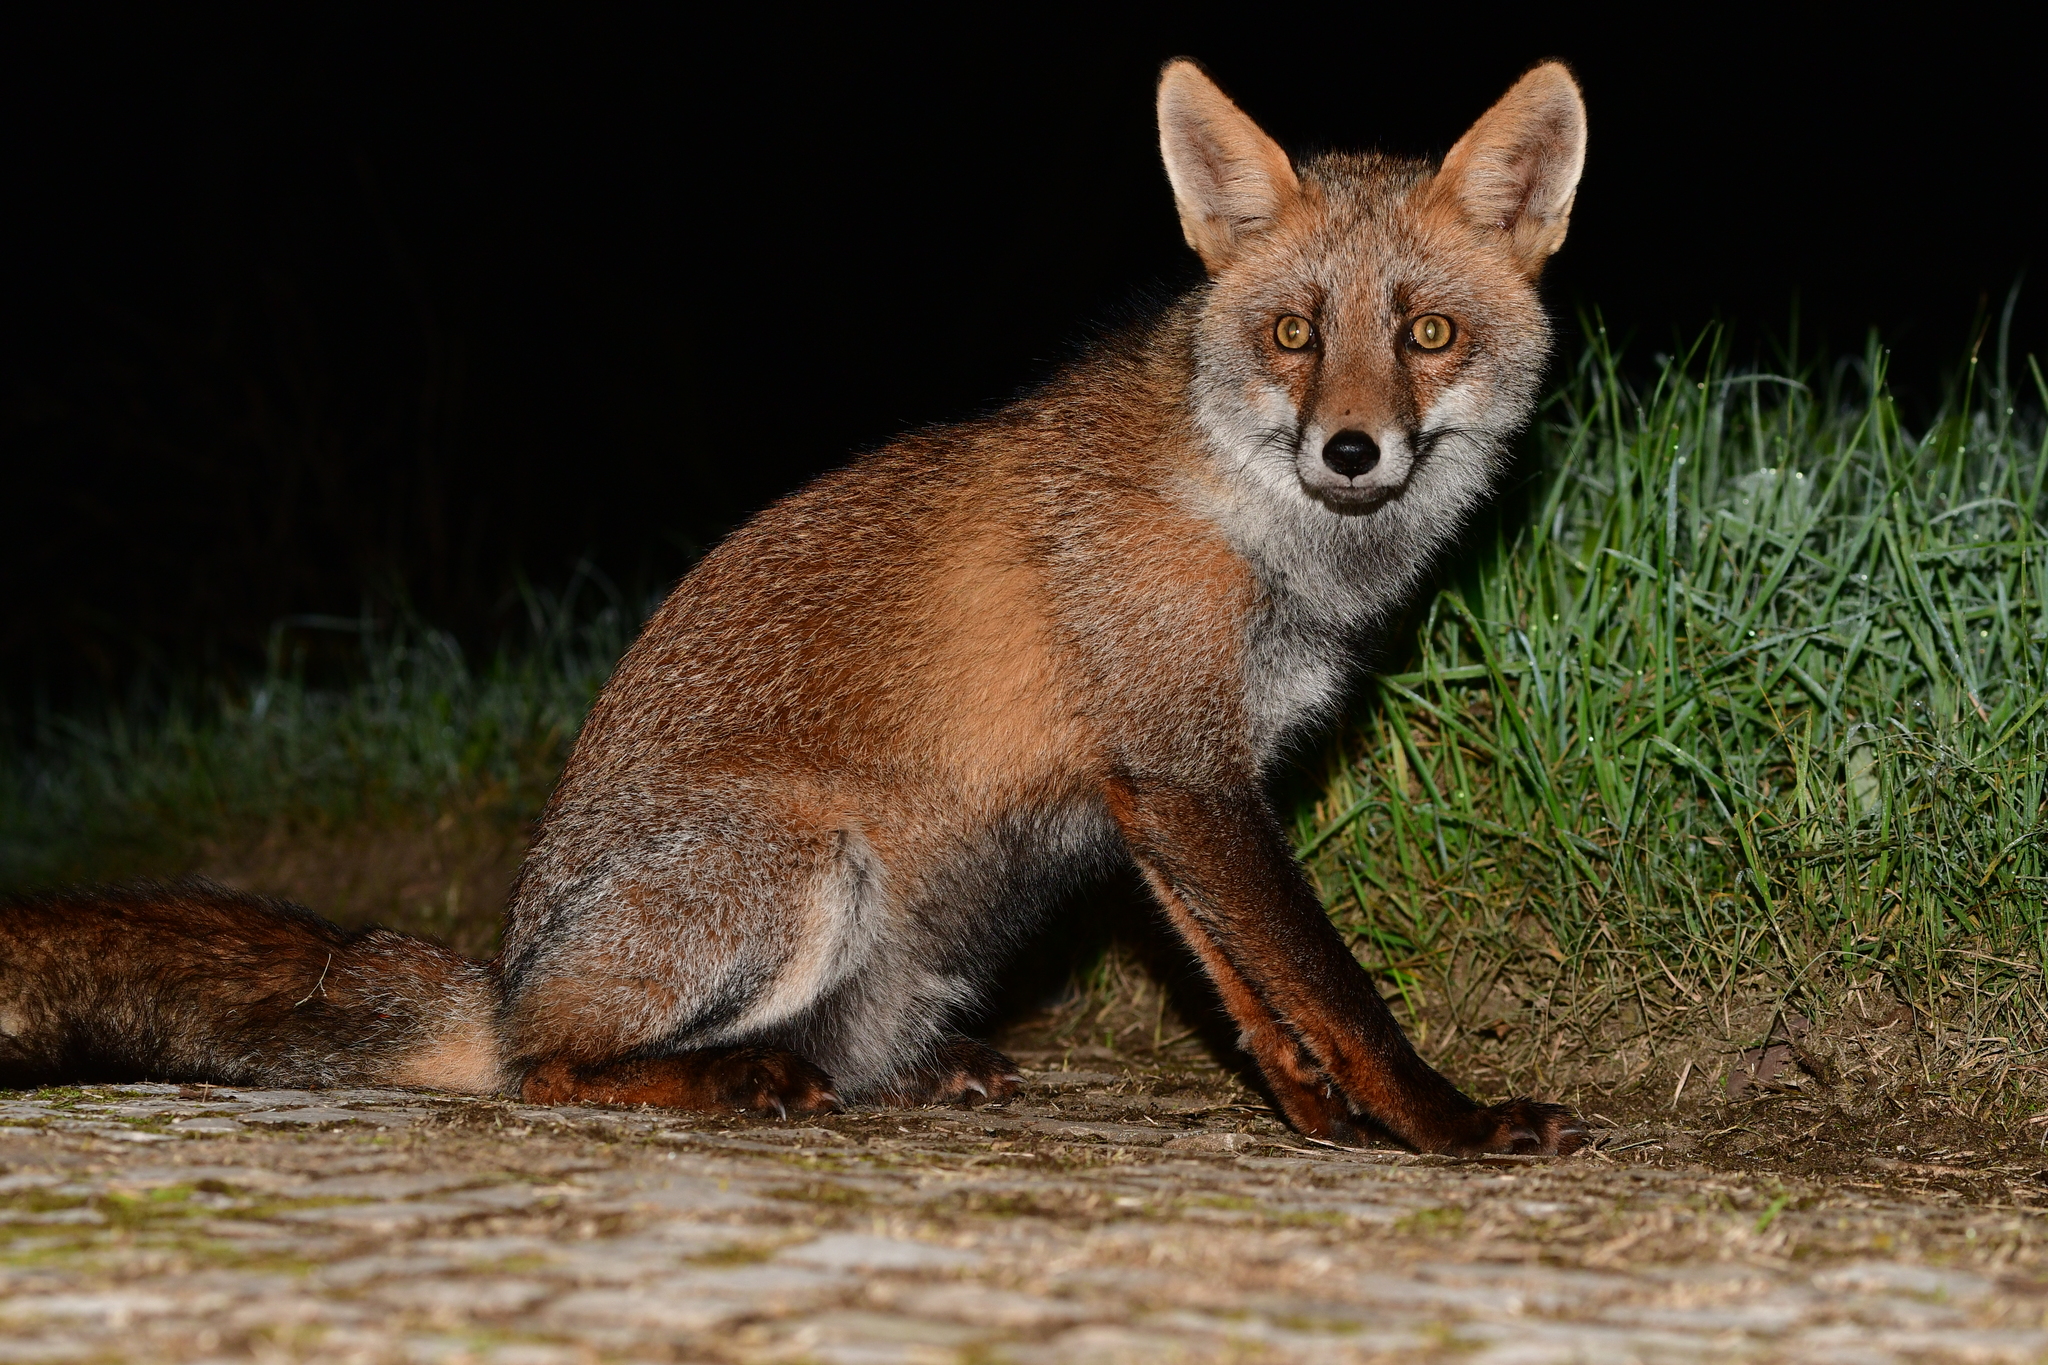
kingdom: Animalia
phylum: Chordata
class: Mammalia
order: Carnivora
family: Canidae
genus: Vulpes
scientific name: Vulpes vulpes
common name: Red fox
